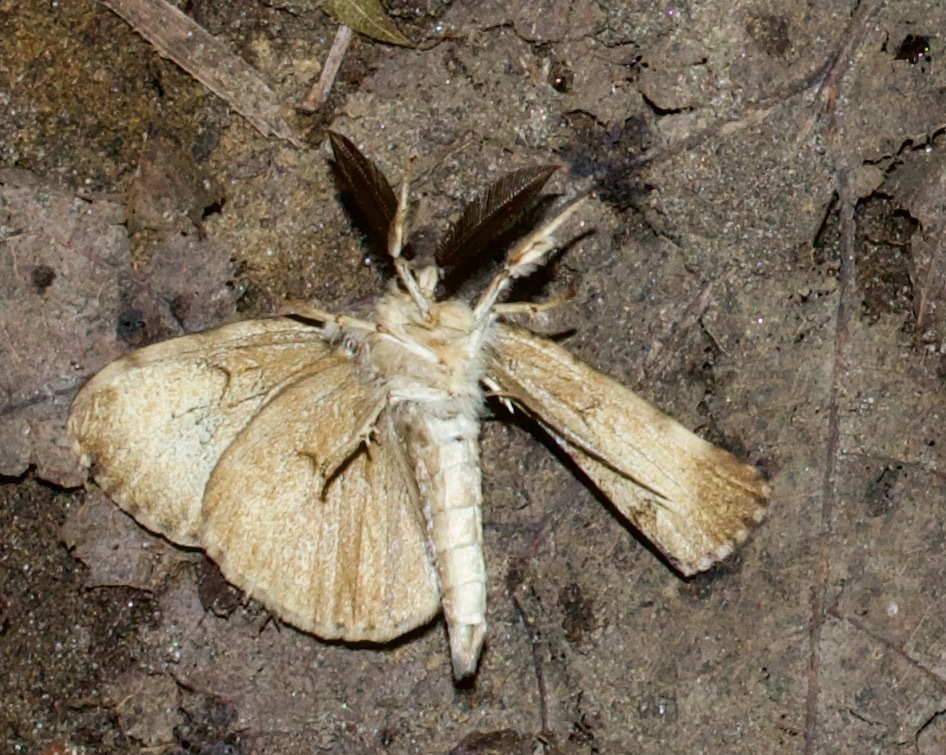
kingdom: Animalia
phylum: Arthropoda
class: Insecta
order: Lepidoptera
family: Erebidae
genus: Lymantria
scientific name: Lymantria dispar
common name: Gypsy moth
